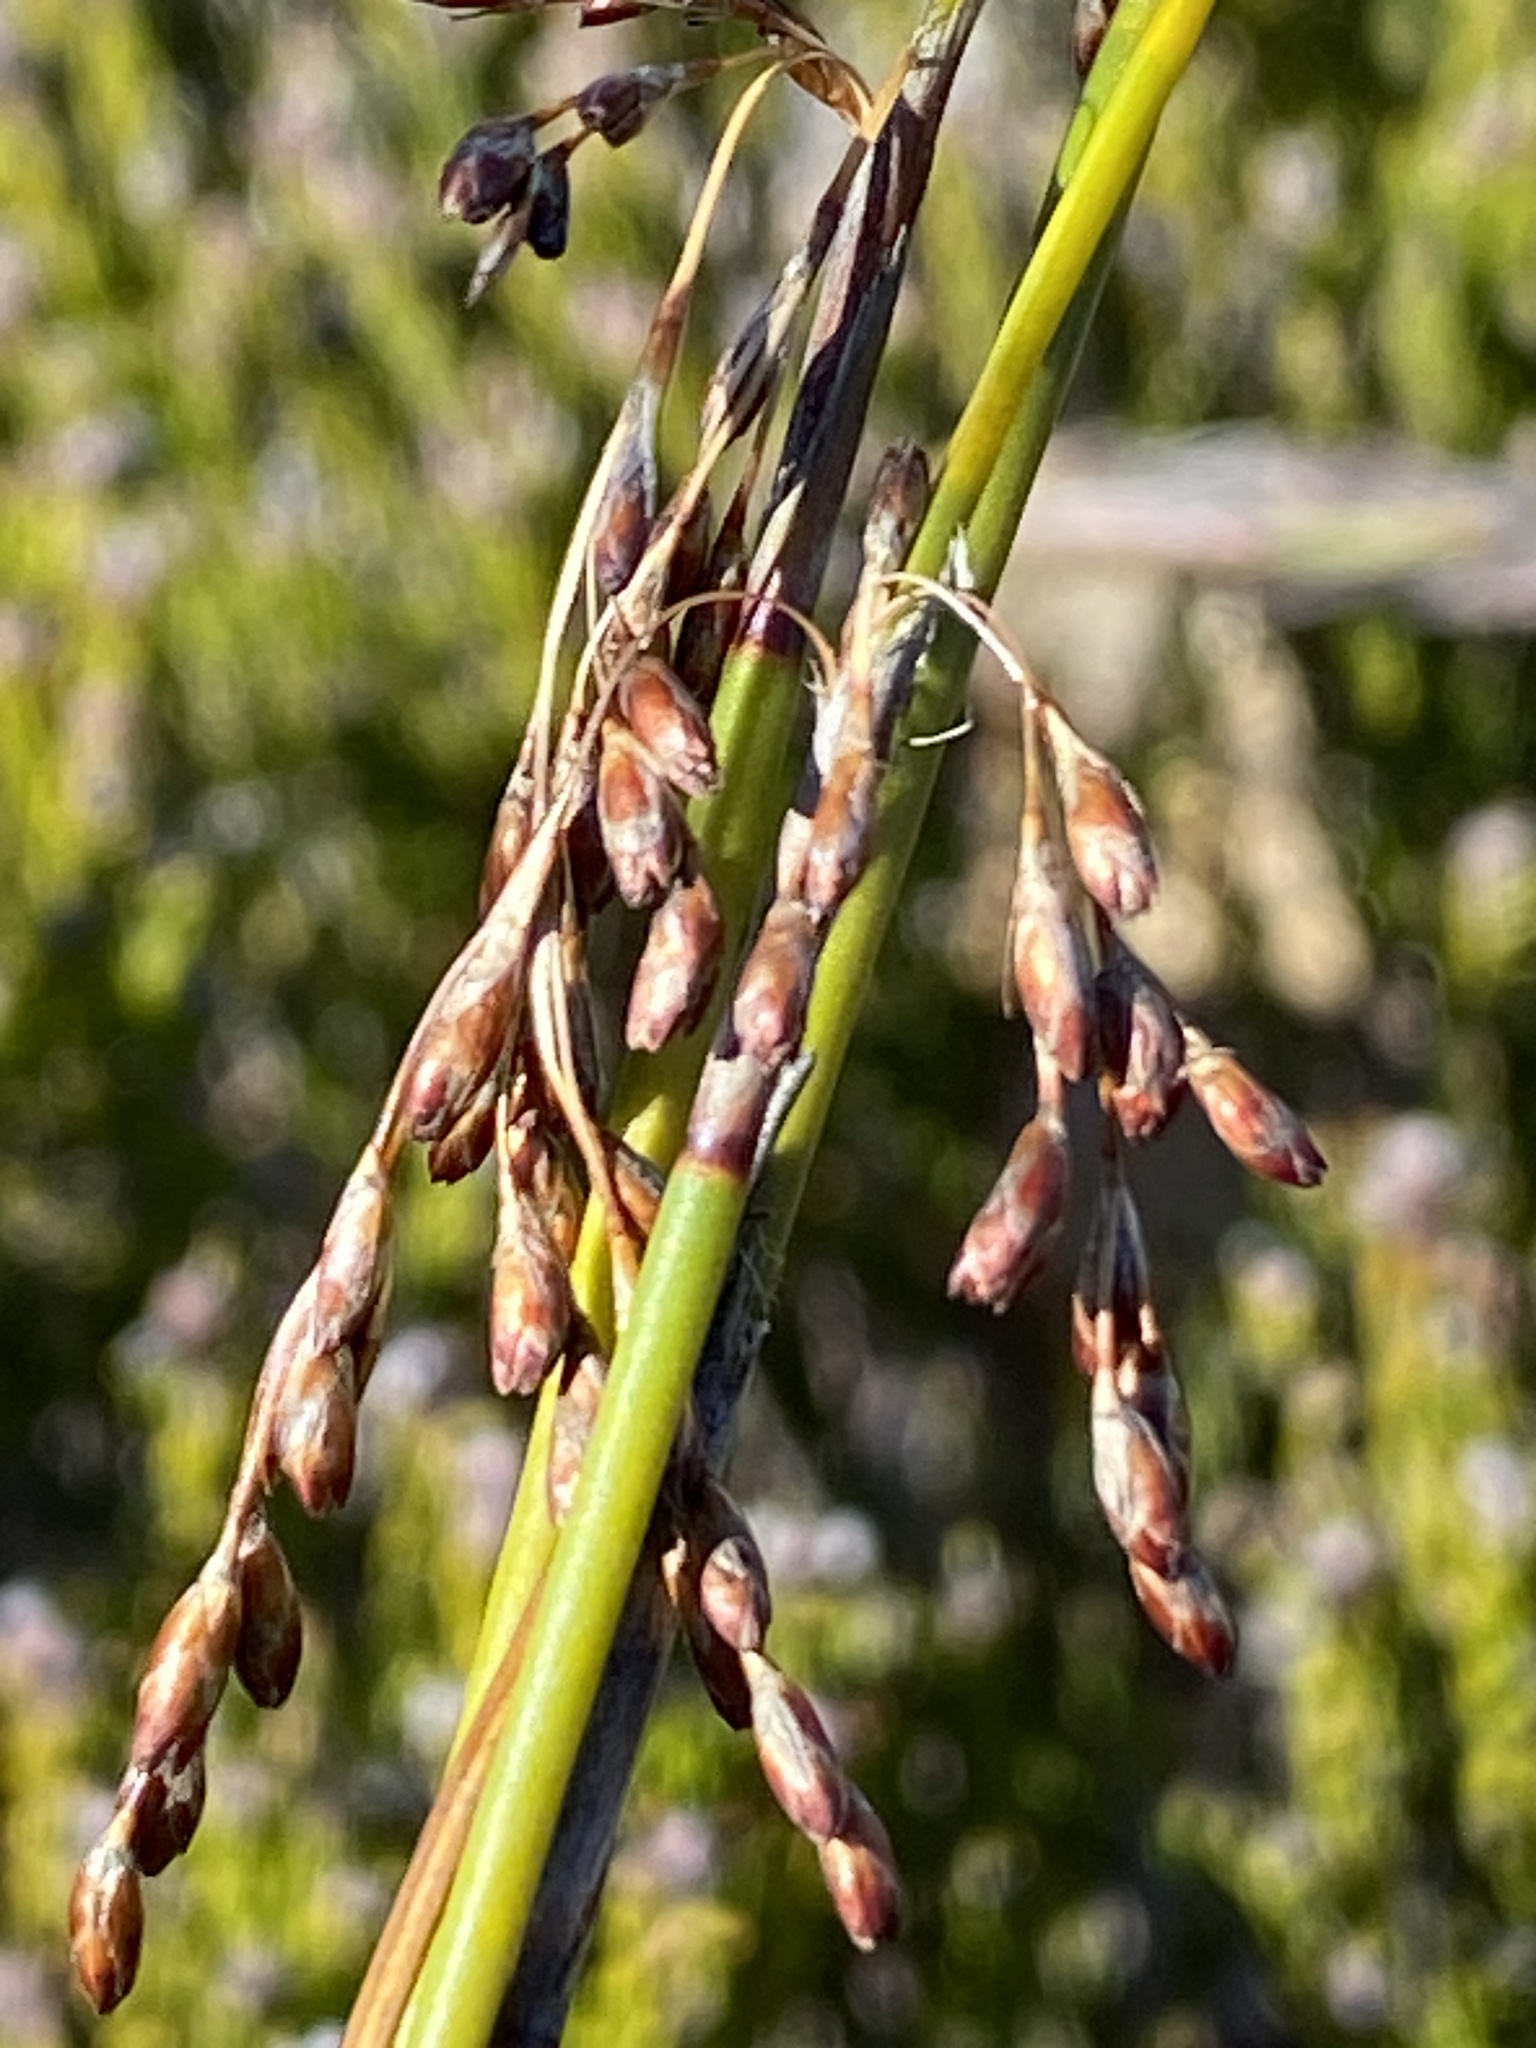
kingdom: Plantae
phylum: Tracheophyta
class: Liliopsida
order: Poales
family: Restionaceae
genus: Rhodocoma
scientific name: Rhodocoma fruticosa
